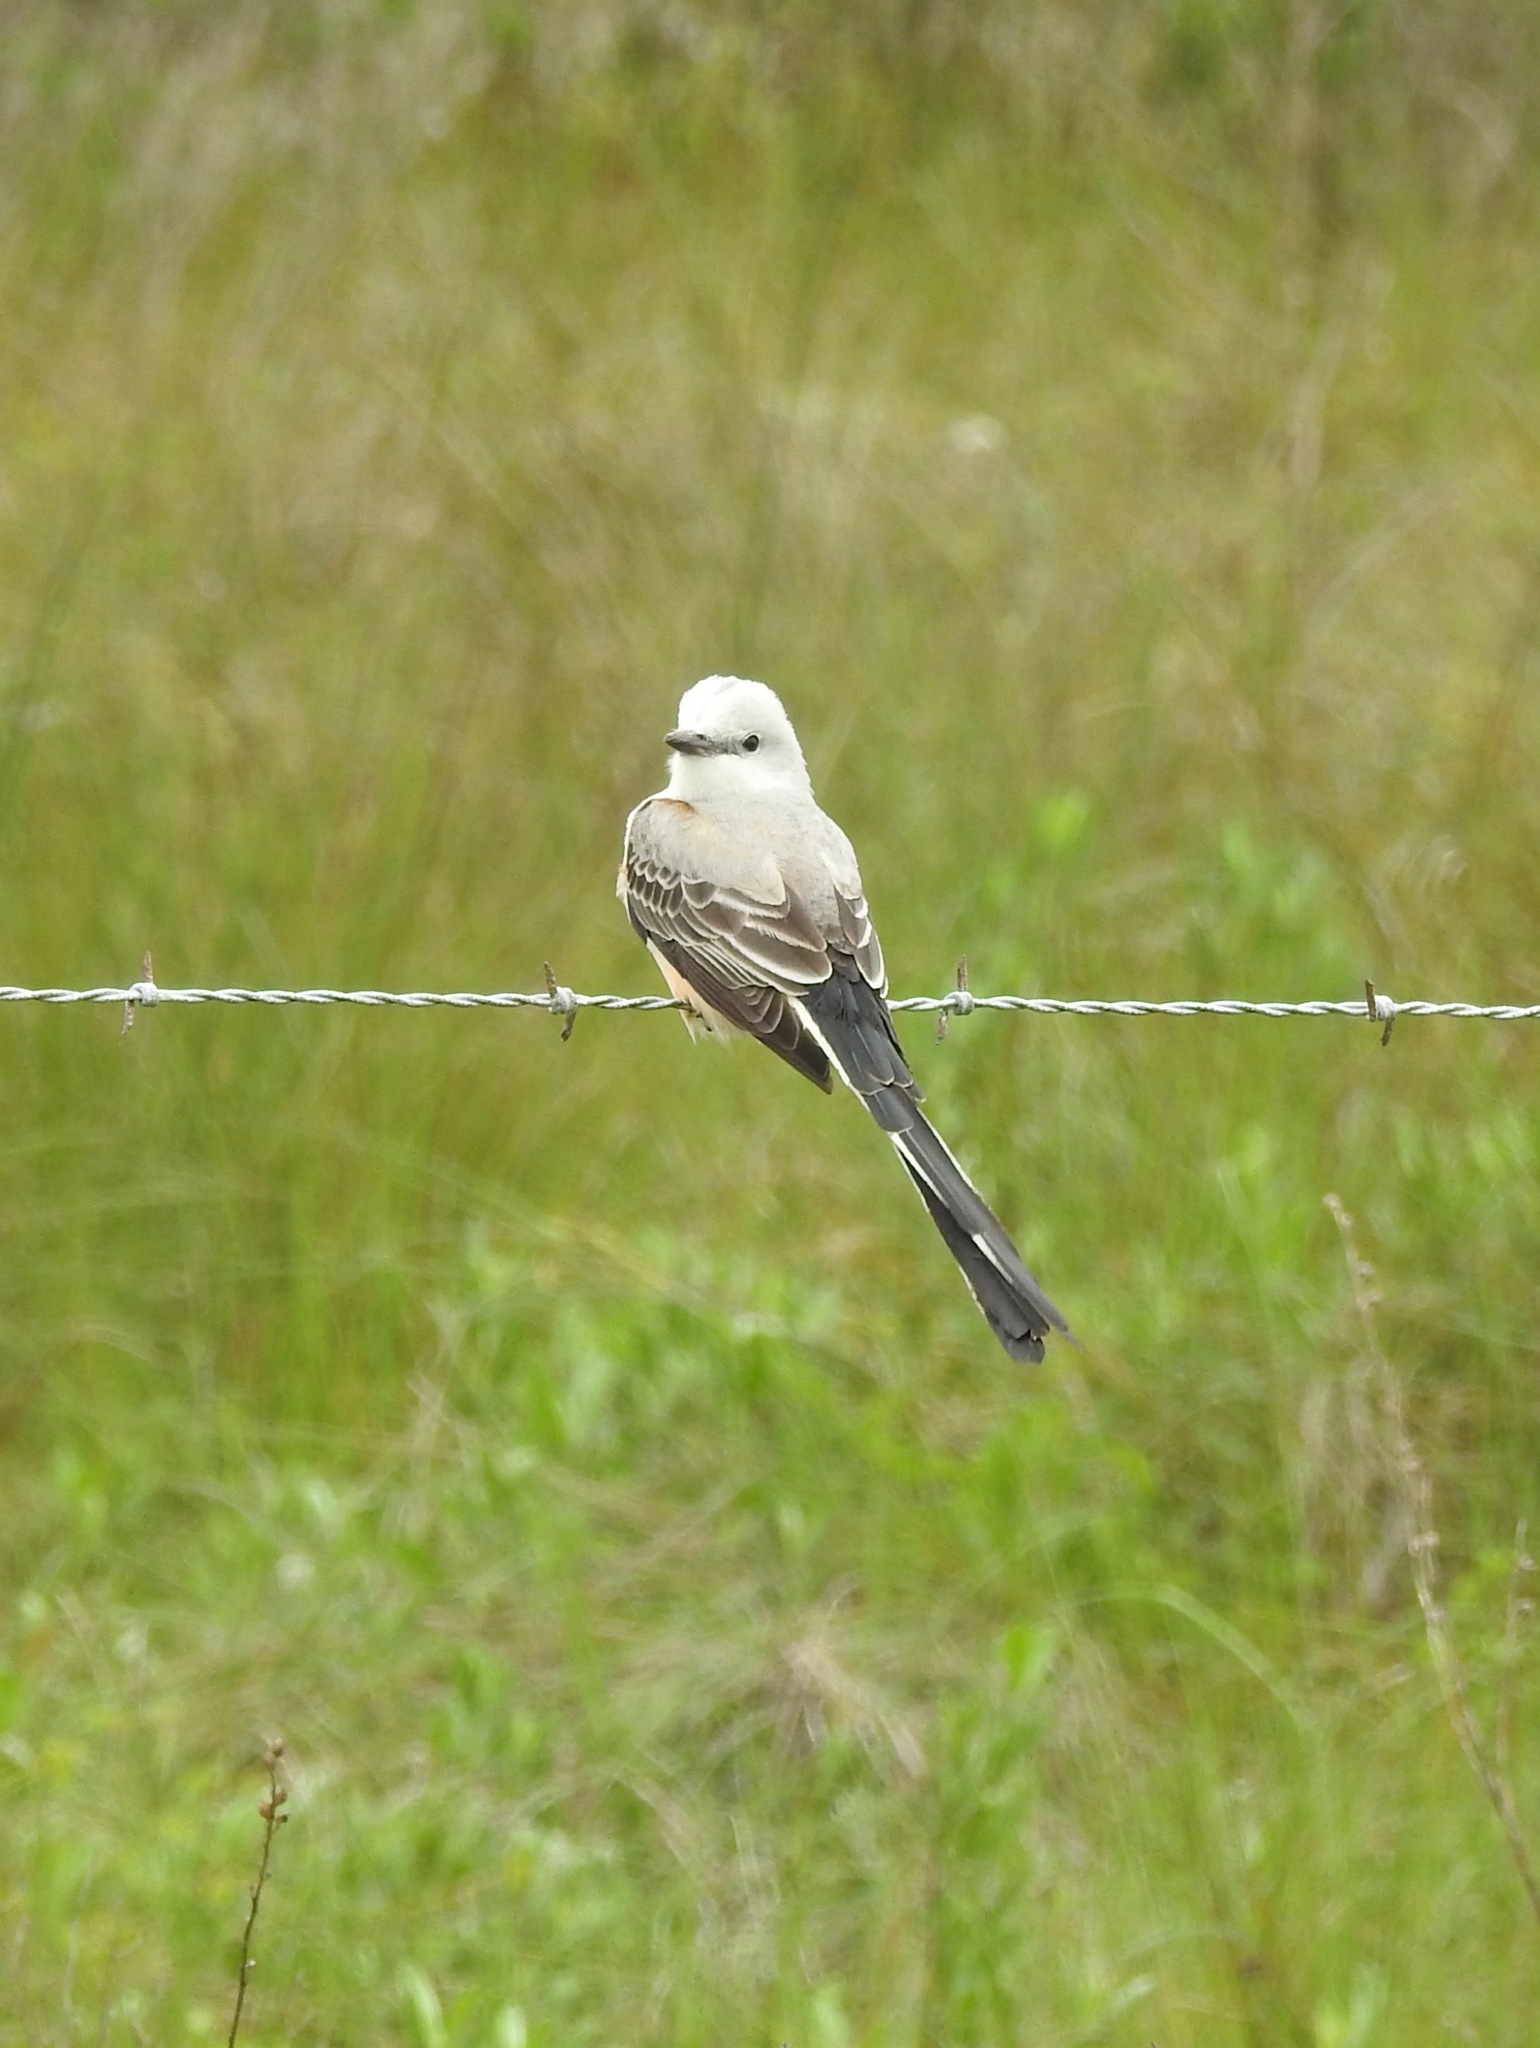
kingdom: Animalia
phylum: Chordata
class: Aves
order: Passeriformes
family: Tyrannidae
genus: Tyrannus
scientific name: Tyrannus forficatus
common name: Scissor-tailed flycatcher
